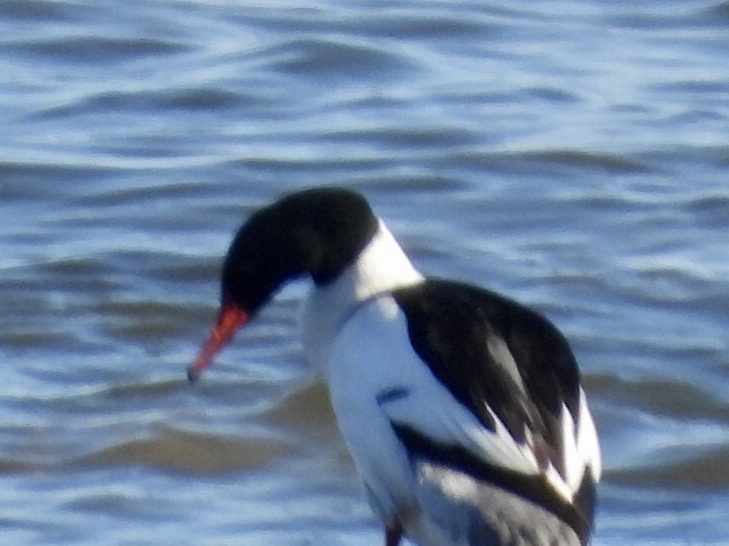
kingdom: Animalia
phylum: Chordata
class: Aves
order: Anseriformes
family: Anatidae
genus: Mergus
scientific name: Mergus merganser
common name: Common merganser
